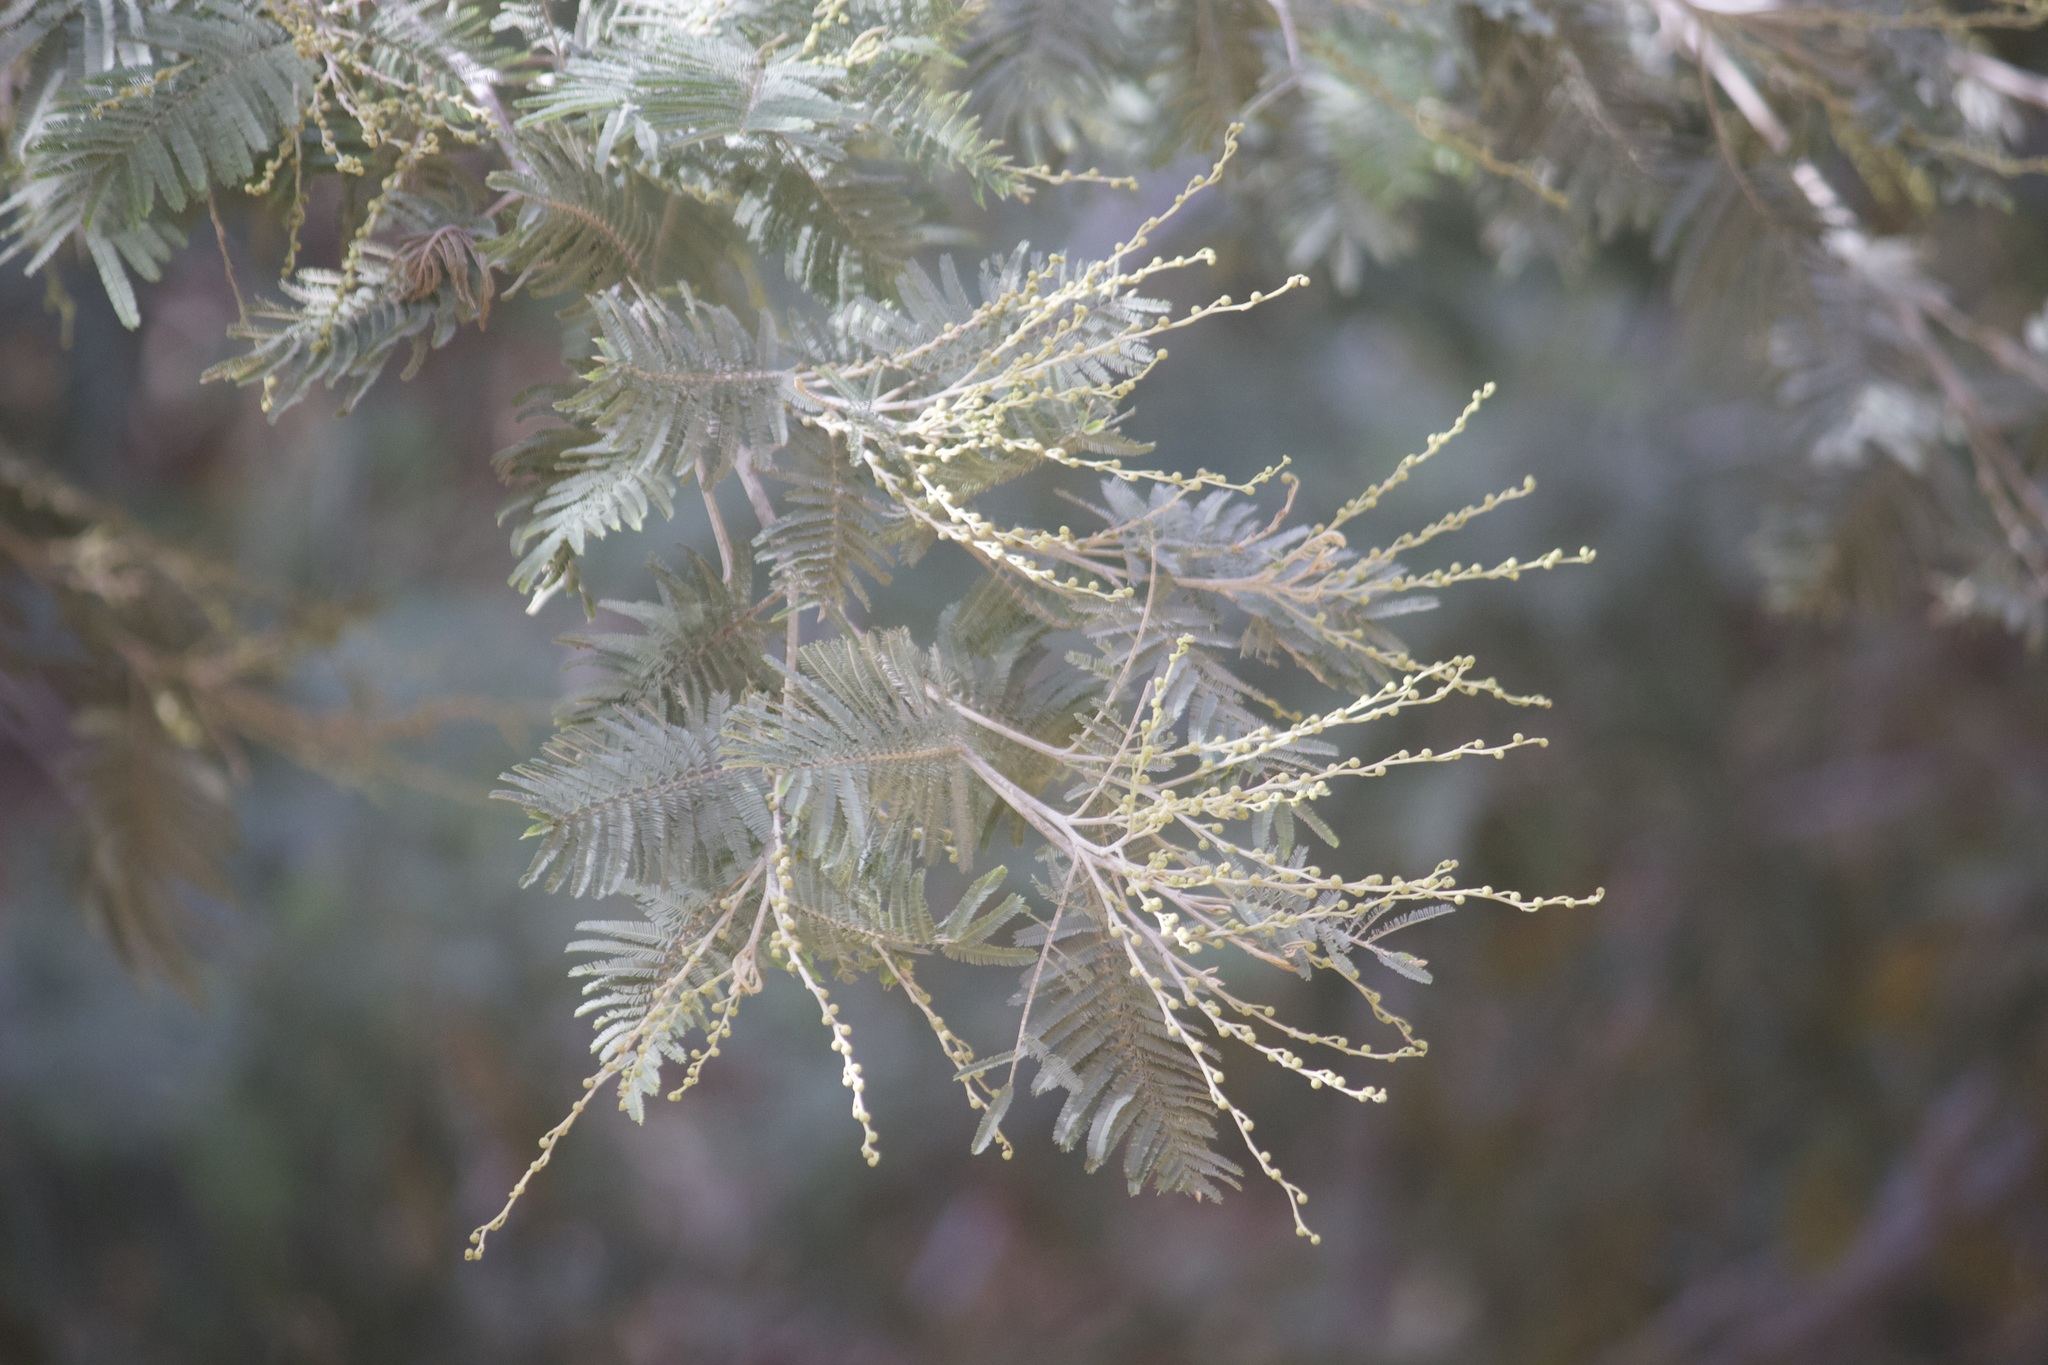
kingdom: Plantae
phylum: Tracheophyta
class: Magnoliopsida
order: Fabales
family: Fabaceae
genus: Acacia
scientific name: Acacia dealbata
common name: Silver wattle
